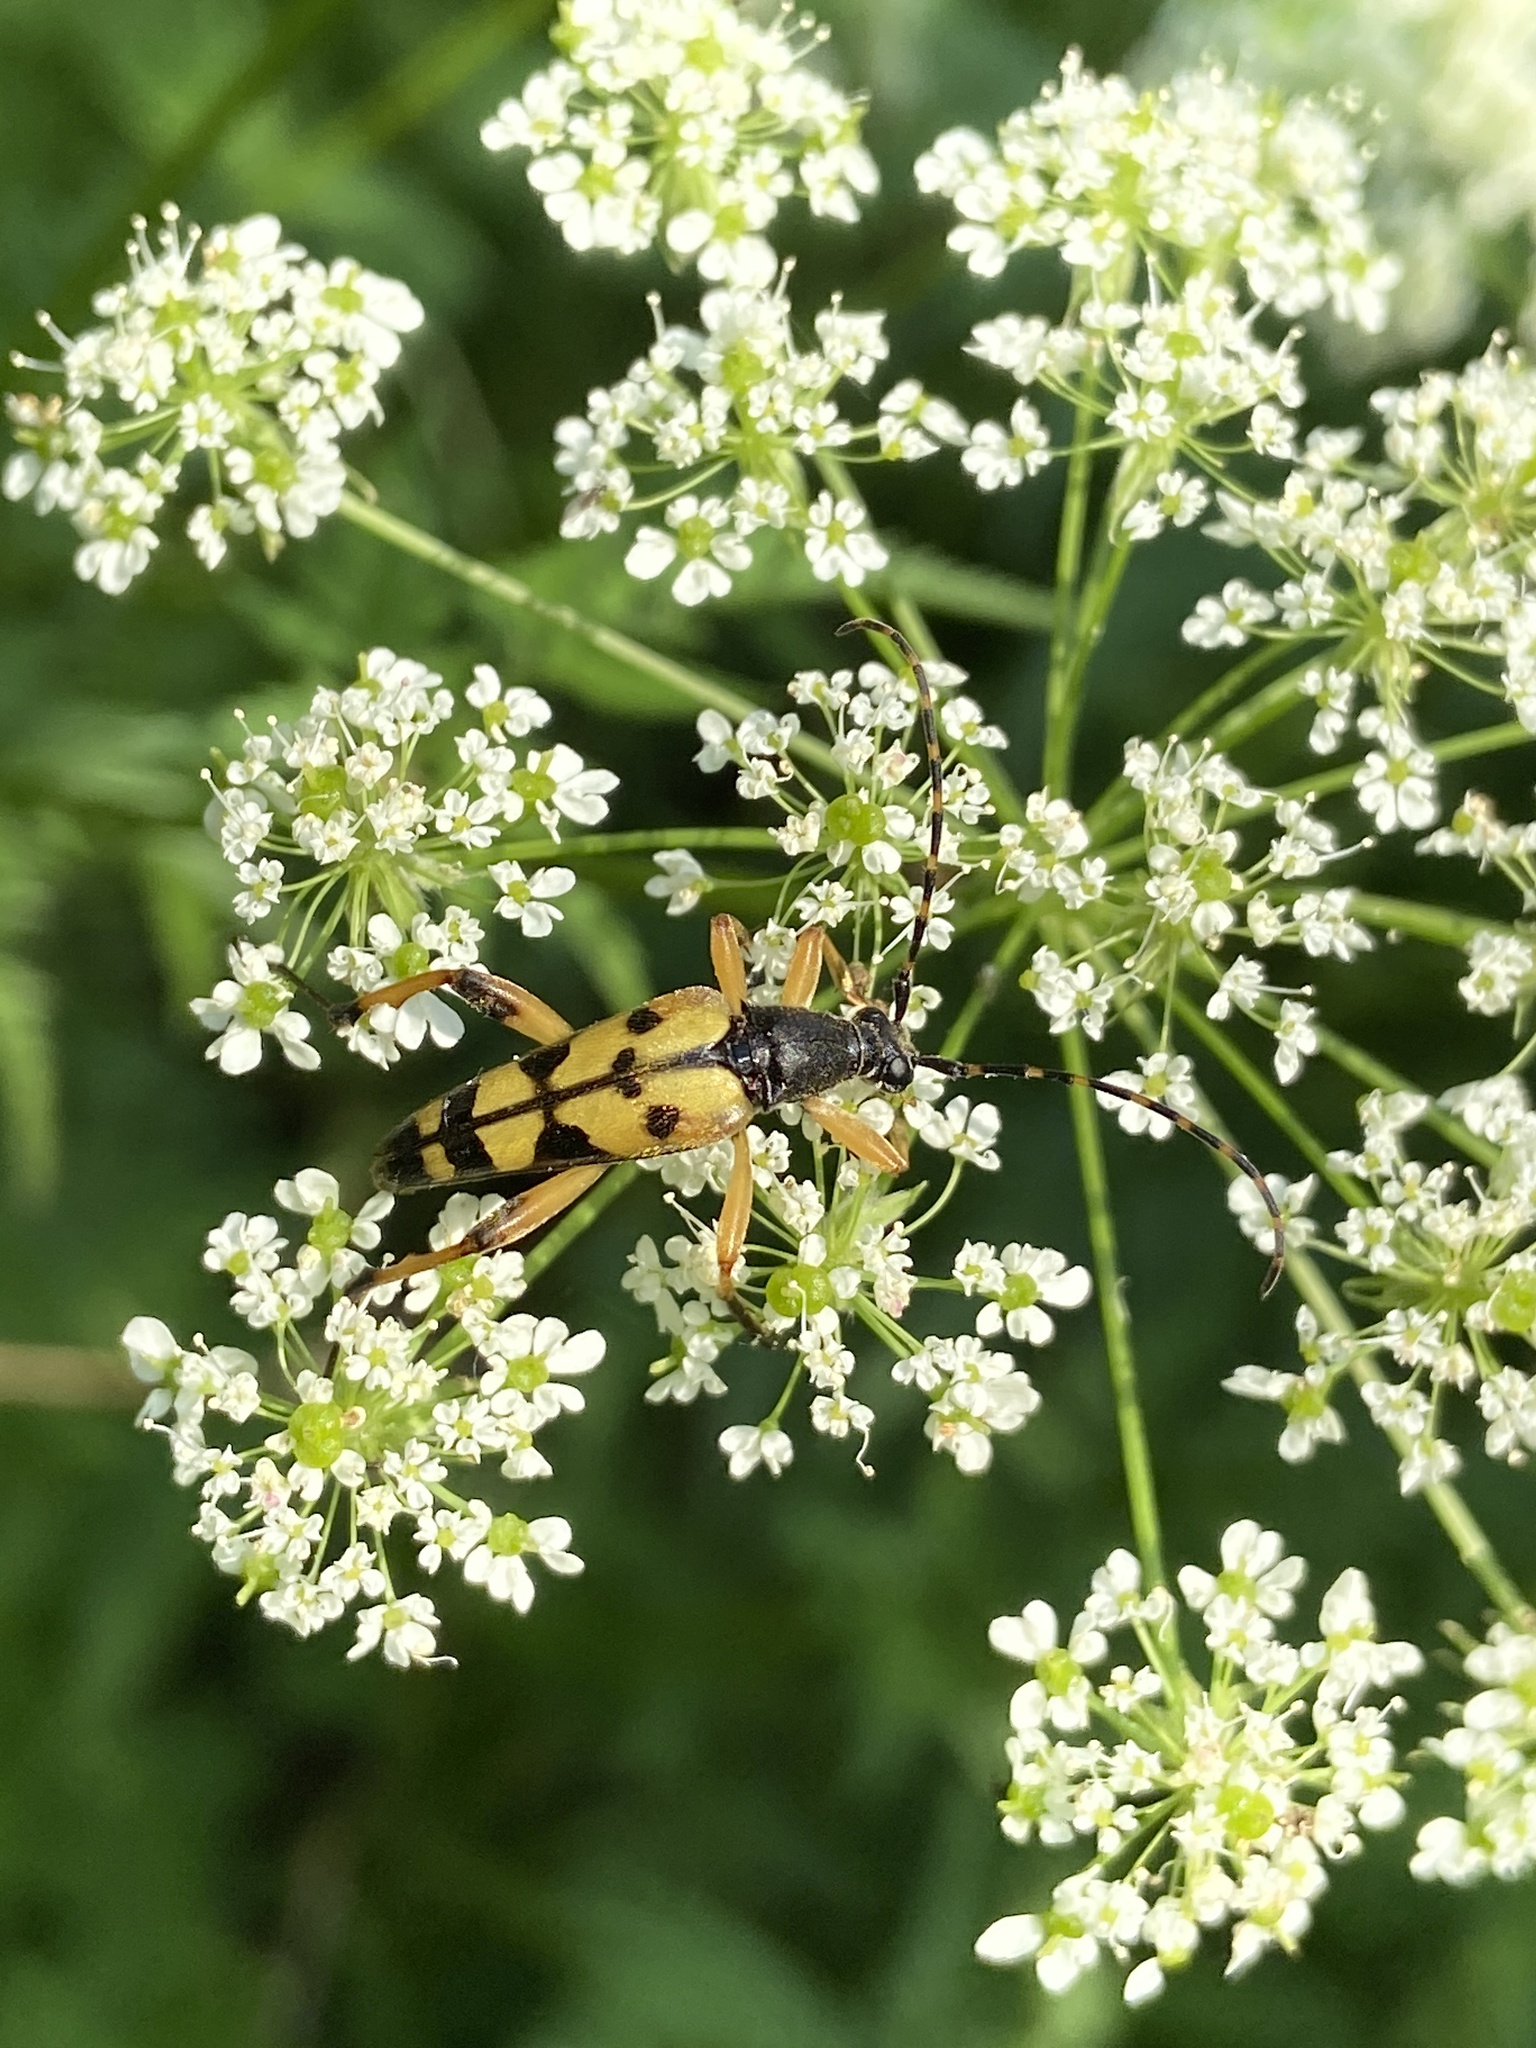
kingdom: Animalia
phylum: Arthropoda
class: Insecta
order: Coleoptera
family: Cerambycidae
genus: Rutpela
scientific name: Rutpela maculata
